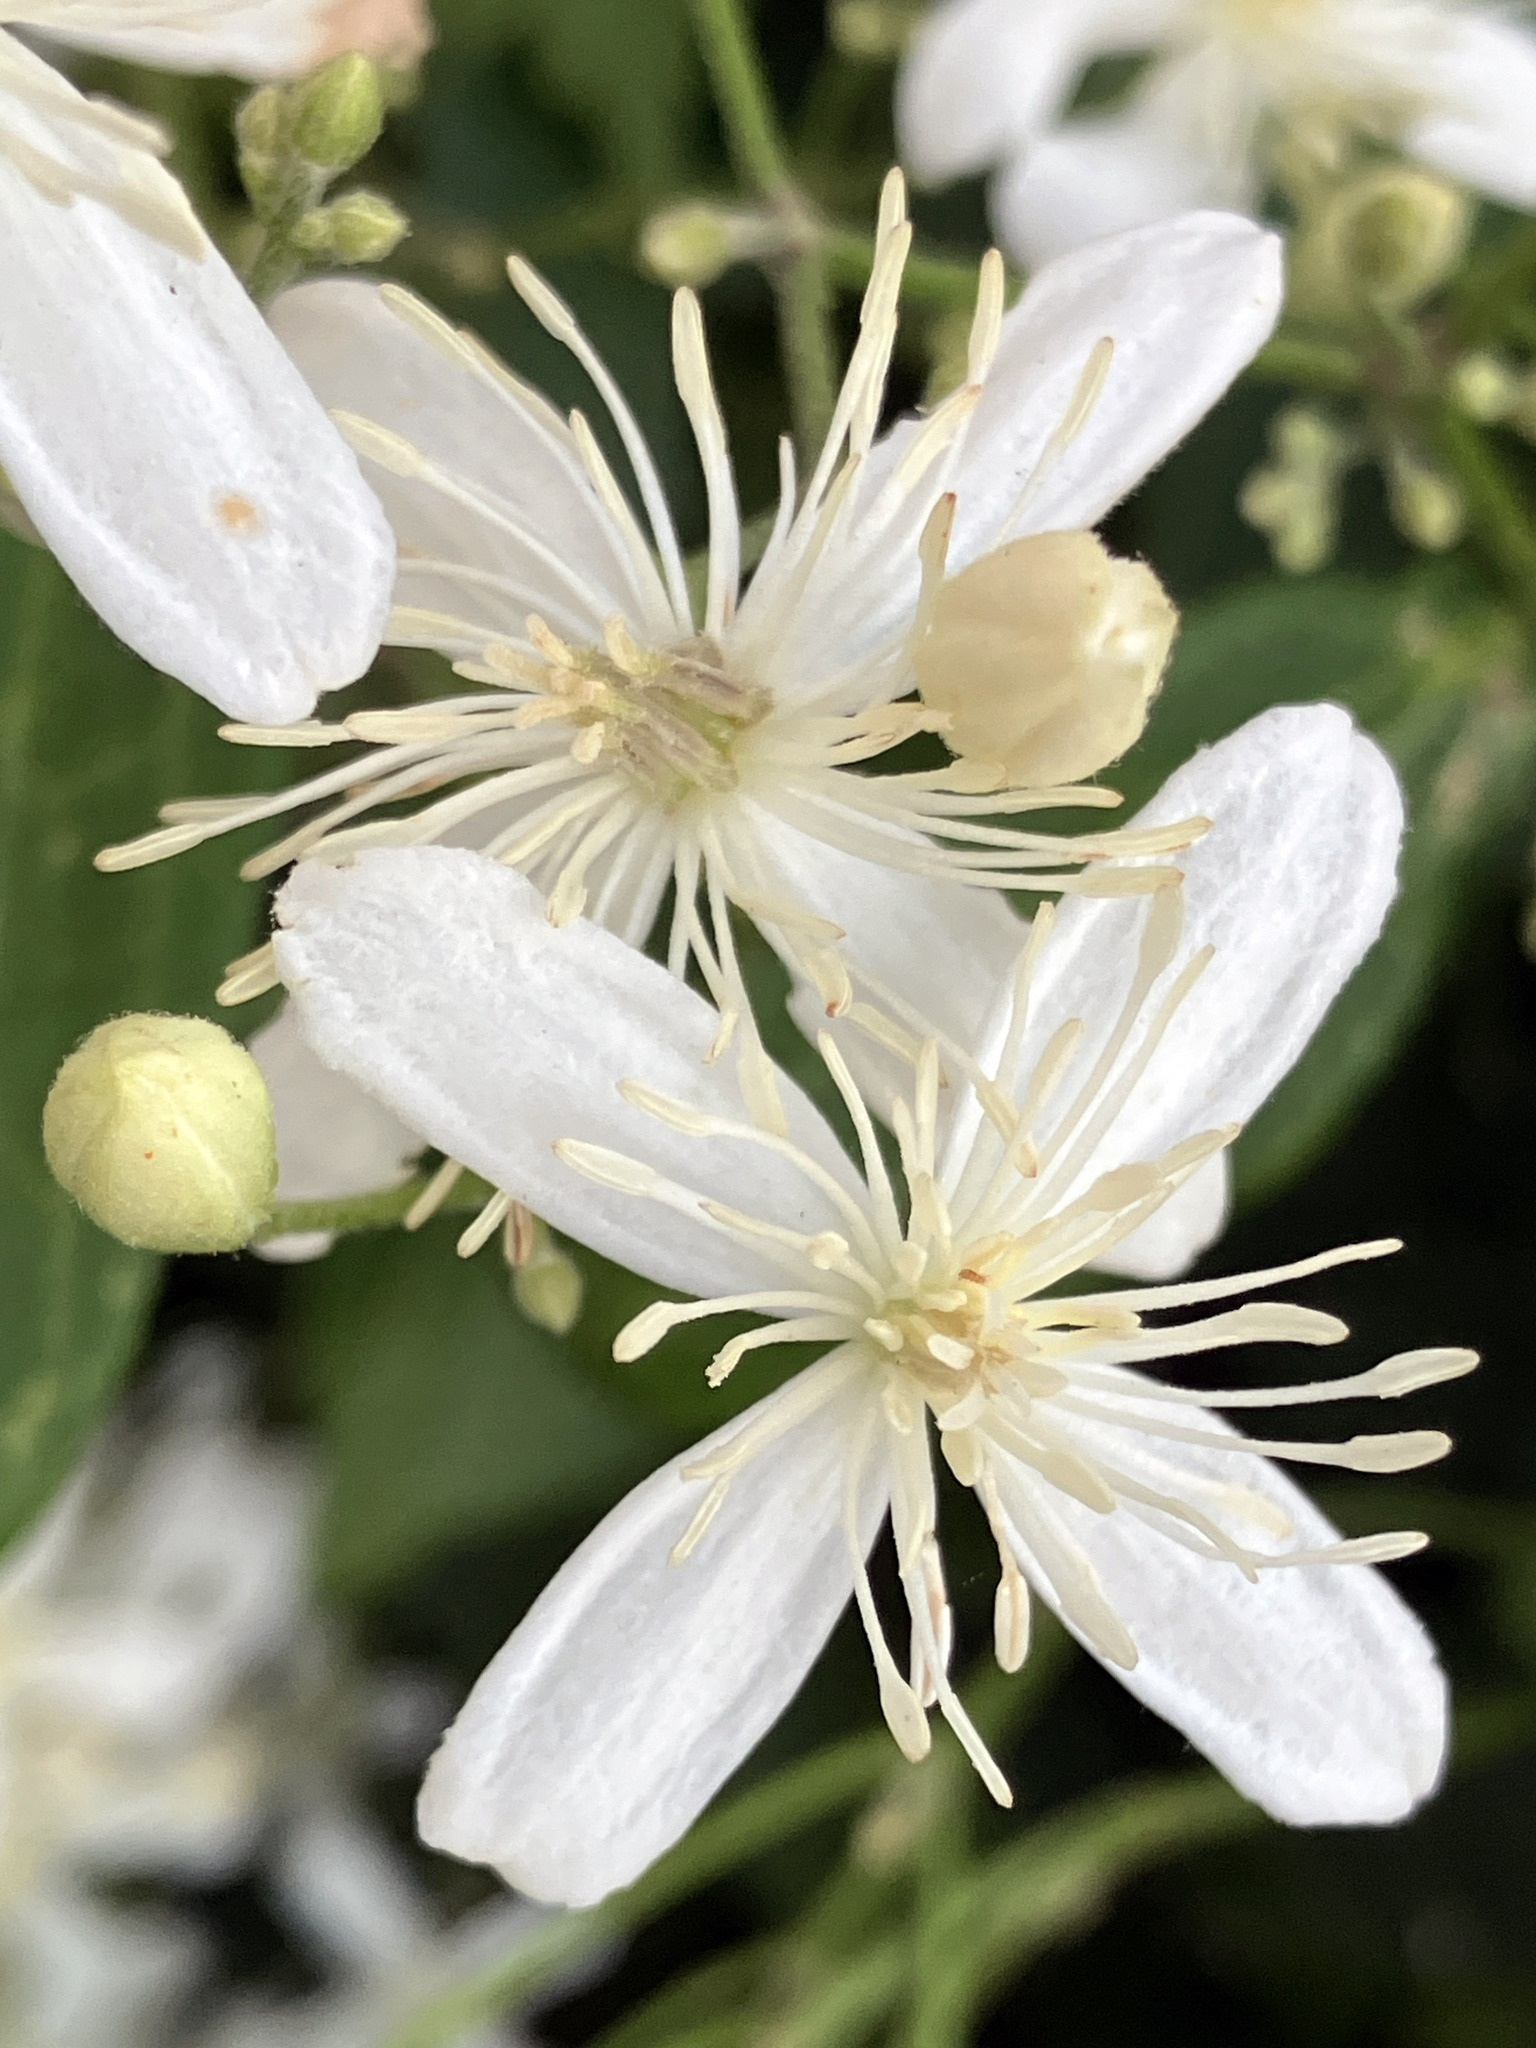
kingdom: Plantae
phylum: Tracheophyta
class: Magnoliopsida
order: Ranunculales
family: Ranunculaceae
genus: Clematis
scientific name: Clematis terniflora
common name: Sweet autumn clematis
